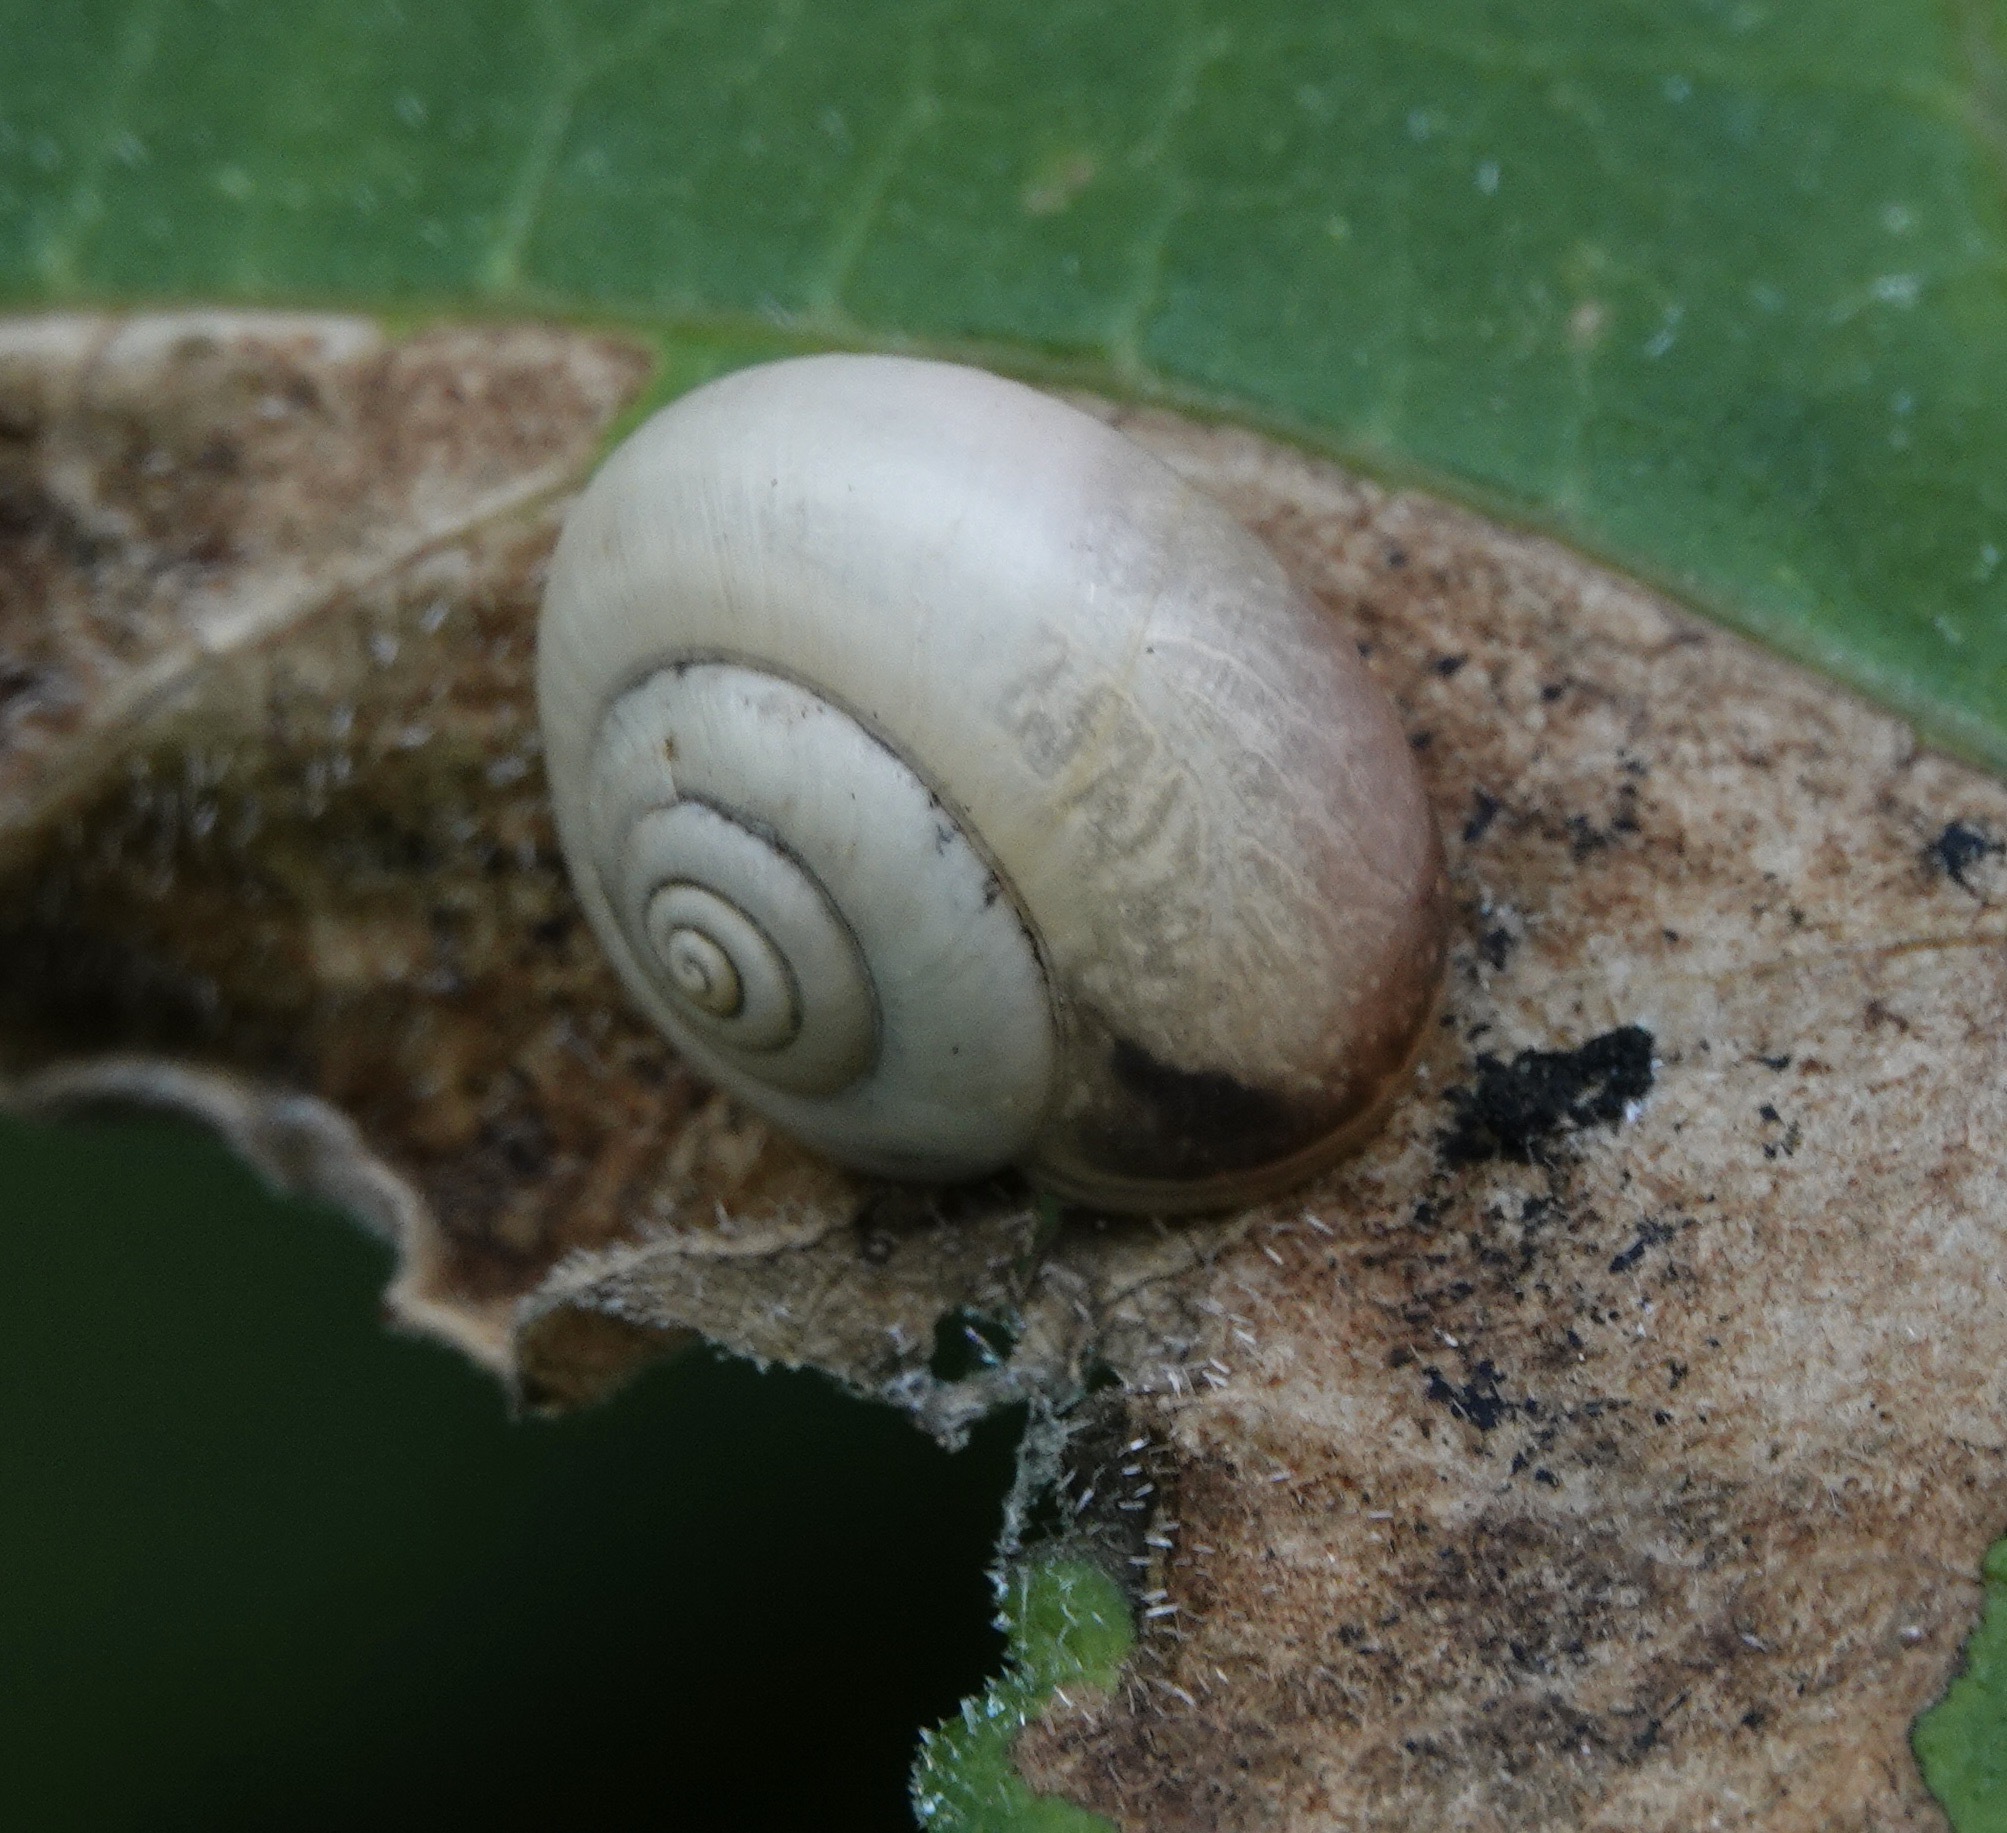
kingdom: Animalia
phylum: Mollusca
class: Gastropoda
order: Stylommatophora
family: Hygromiidae
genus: Monacha
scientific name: Monacha cantiana
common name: Kentish snail
